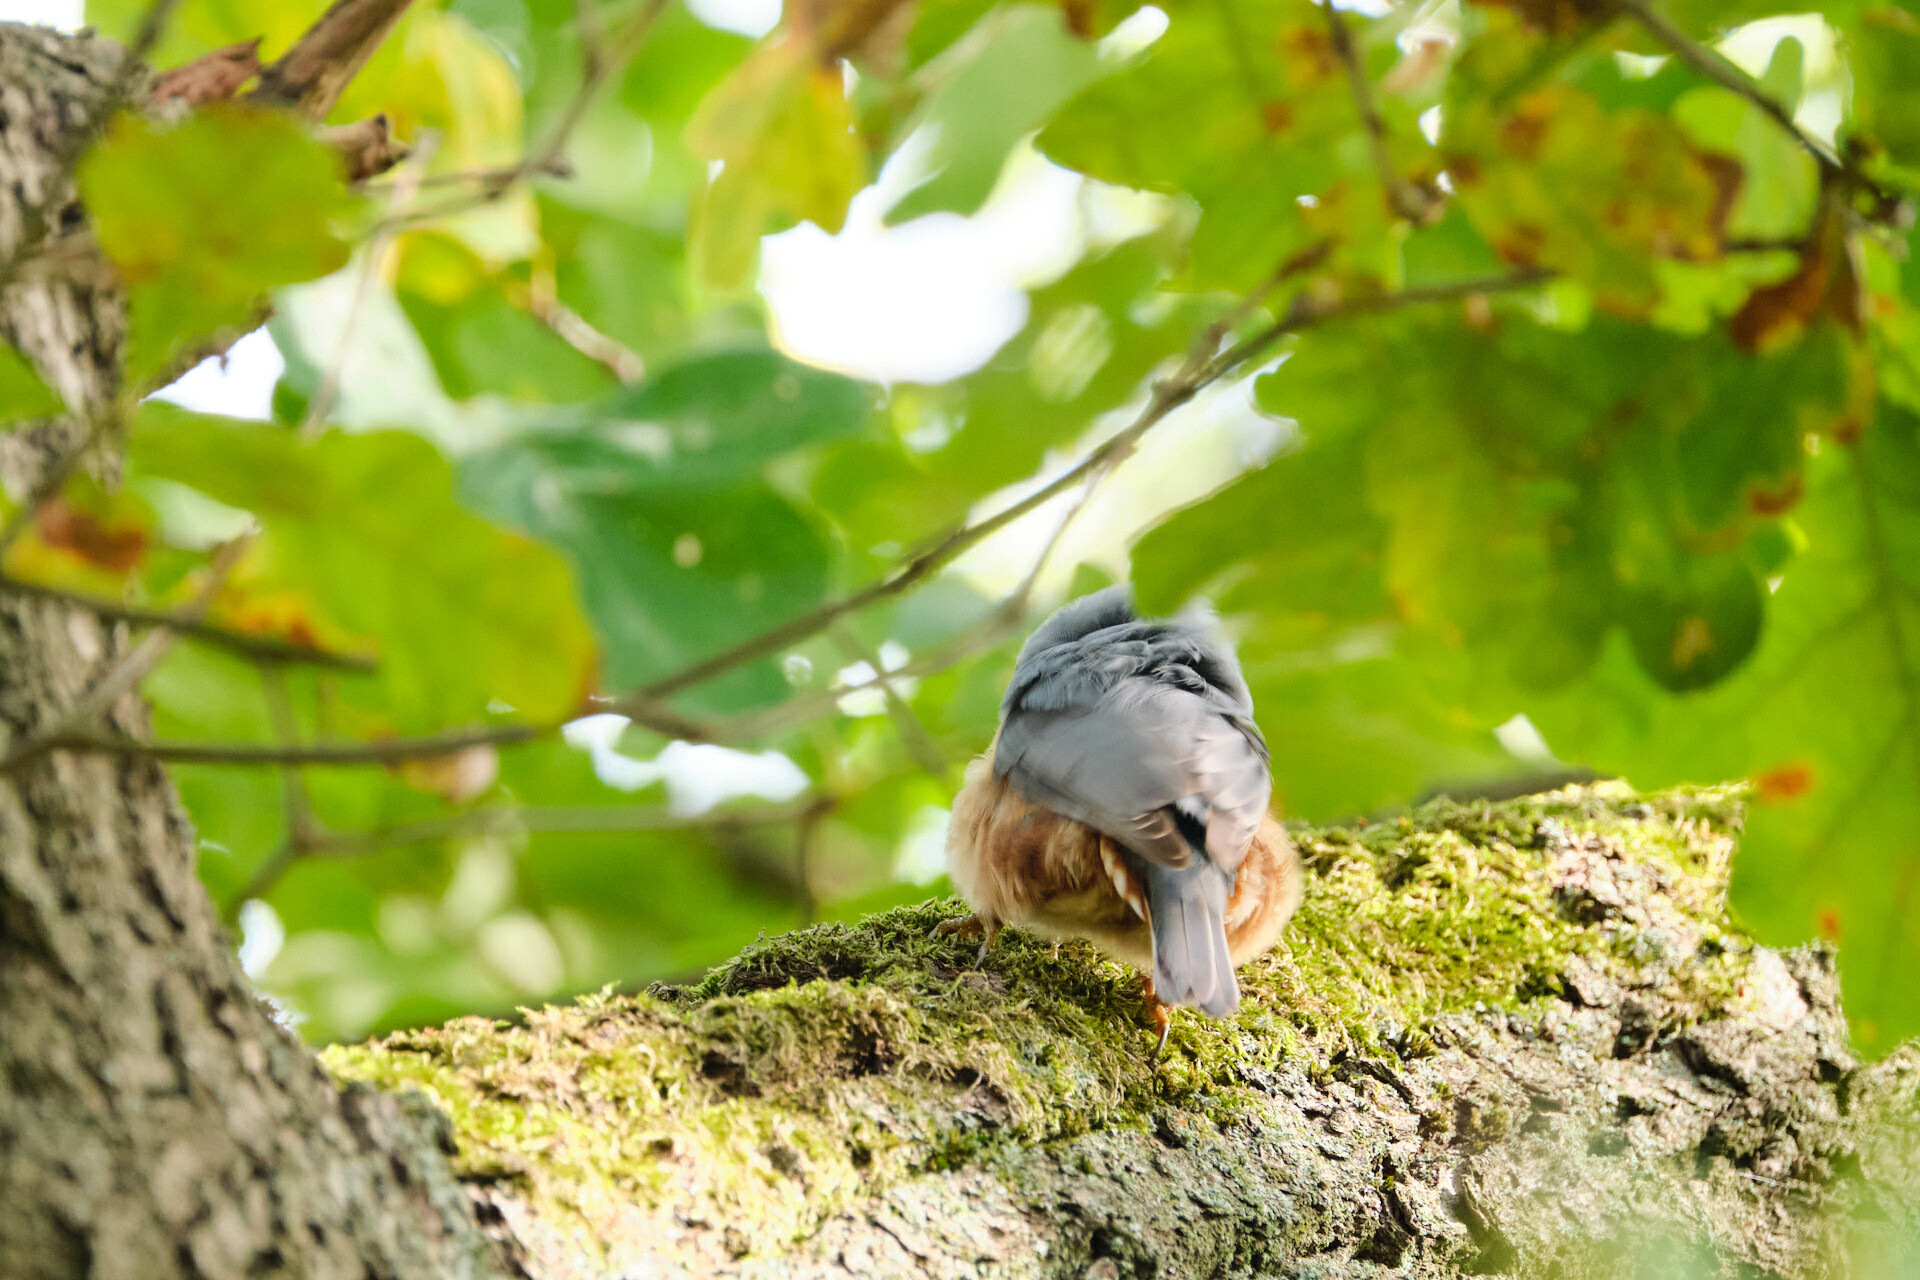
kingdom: Animalia
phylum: Chordata
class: Aves
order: Passeriformes
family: Sittidae
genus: Sitta
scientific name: Sitta europaea
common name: Eurasian nuthatch
